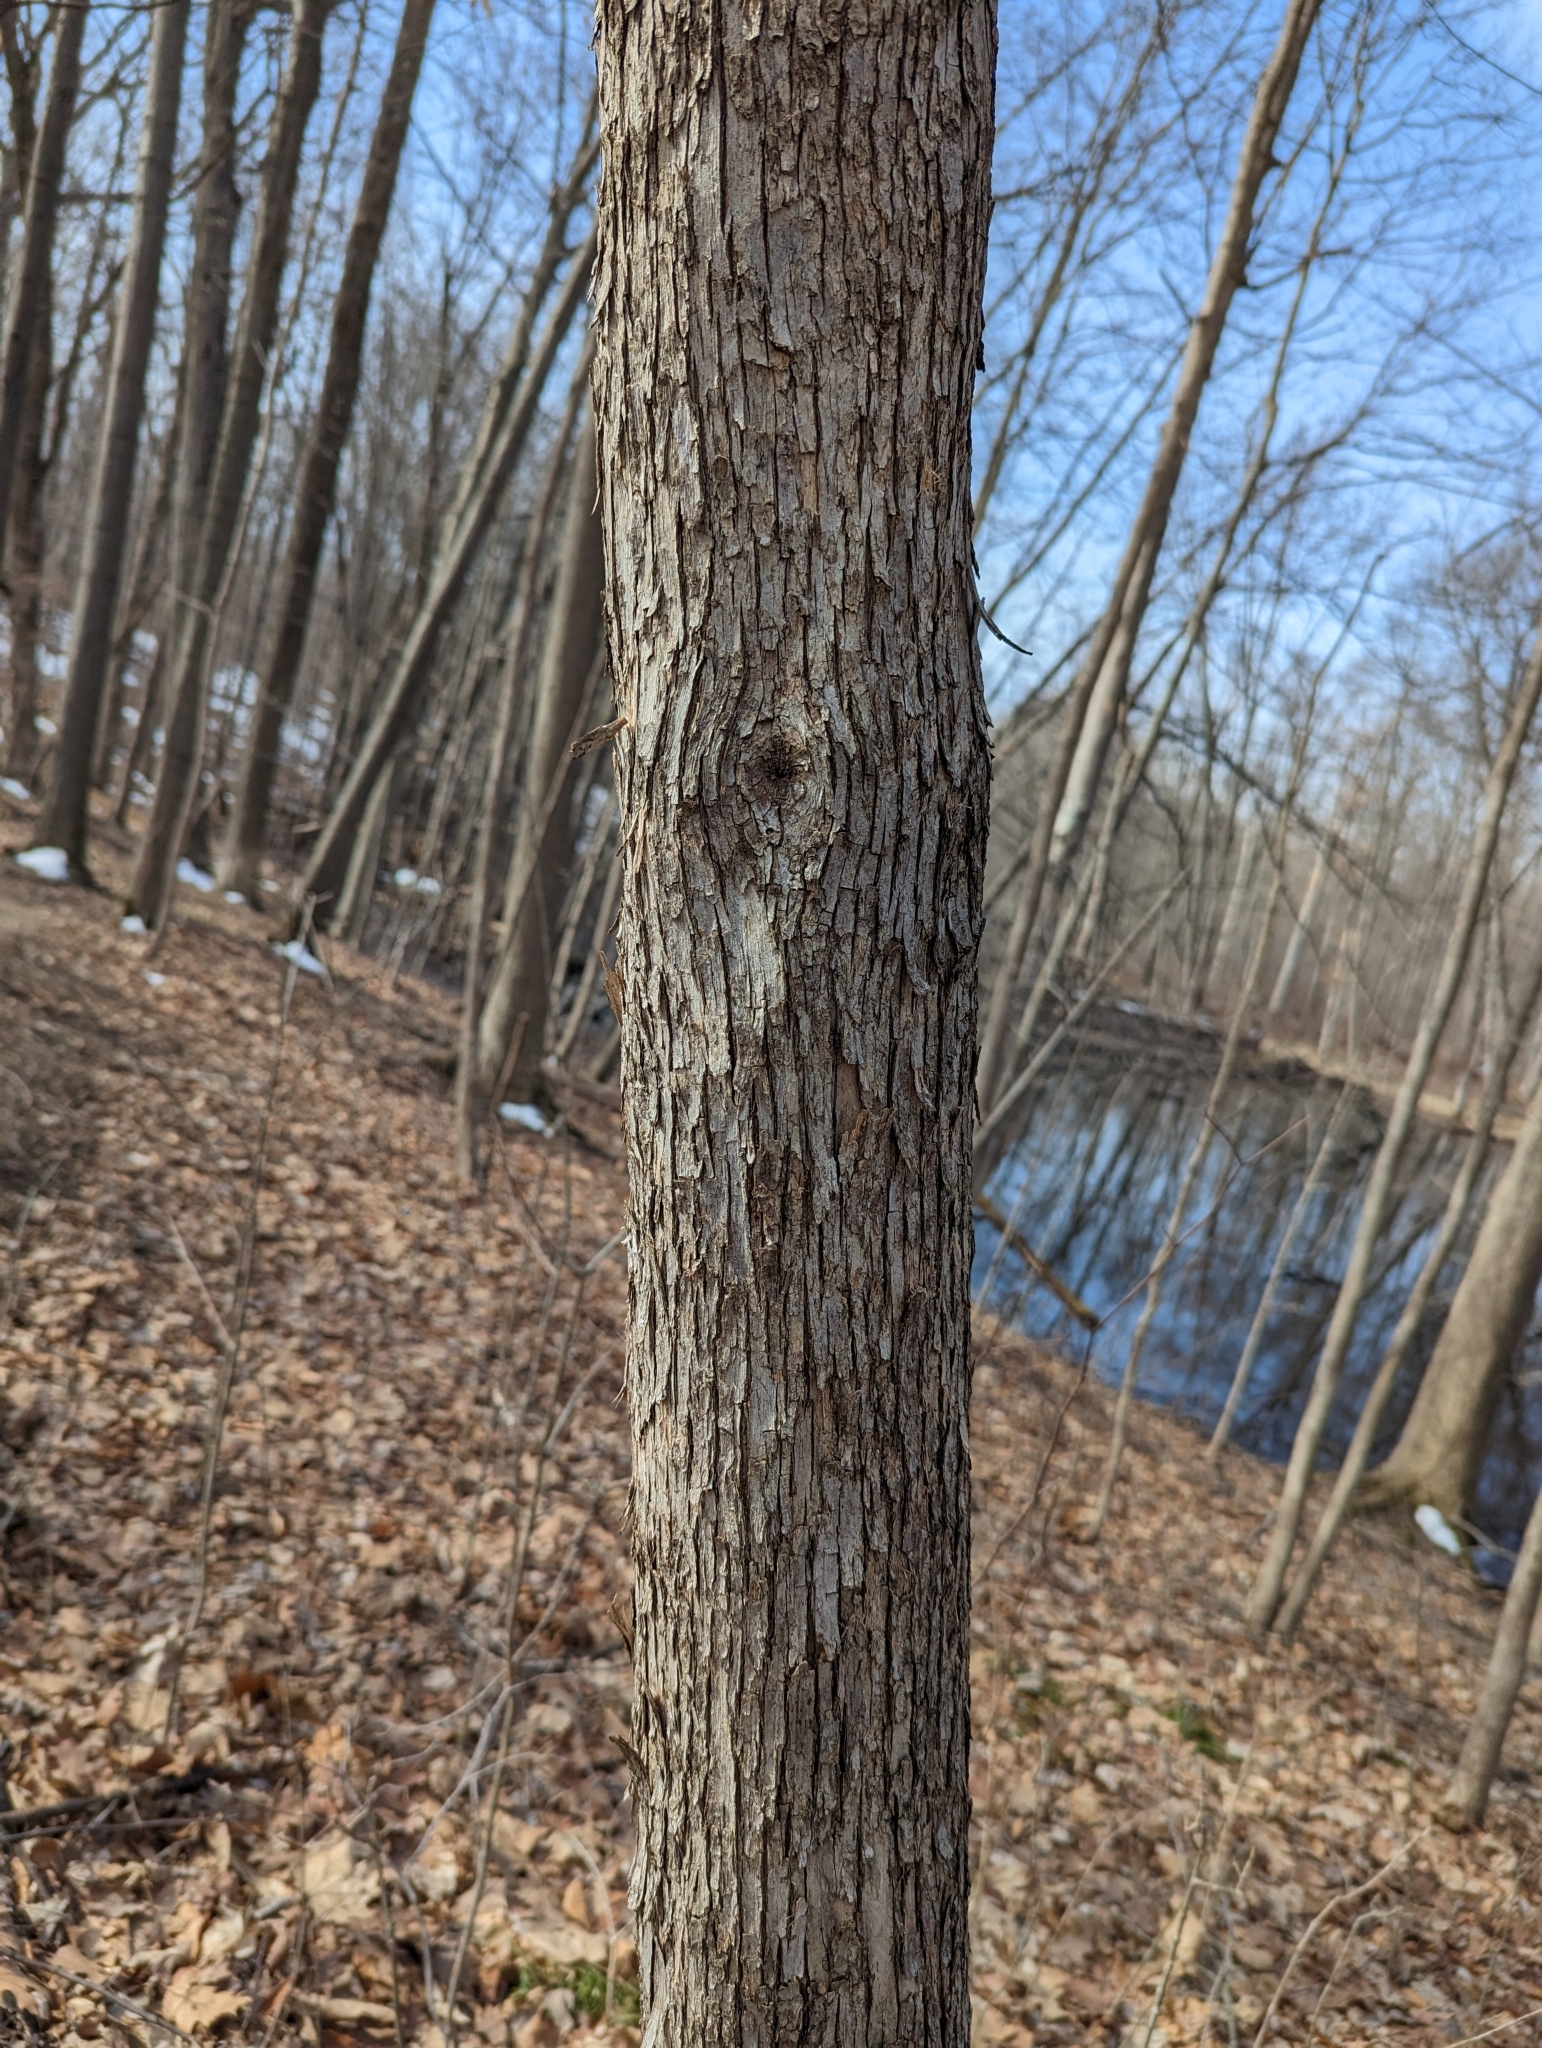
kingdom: Plantae
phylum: Tracheophyta
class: Magnoliopsida
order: Fagales
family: Betulaceae
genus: Ostrya
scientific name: Ostrya virginiana
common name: Ironwood
